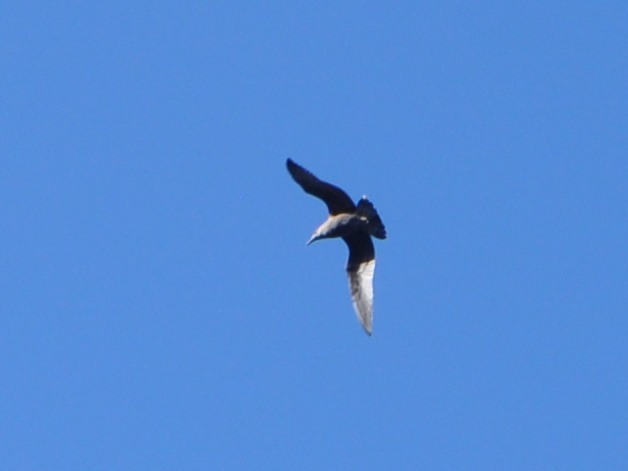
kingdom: Animalia
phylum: Chordata
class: Aves
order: Charadriiformes
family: Laridae
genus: Larus
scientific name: Larus dominicanus
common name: Kelp gull
